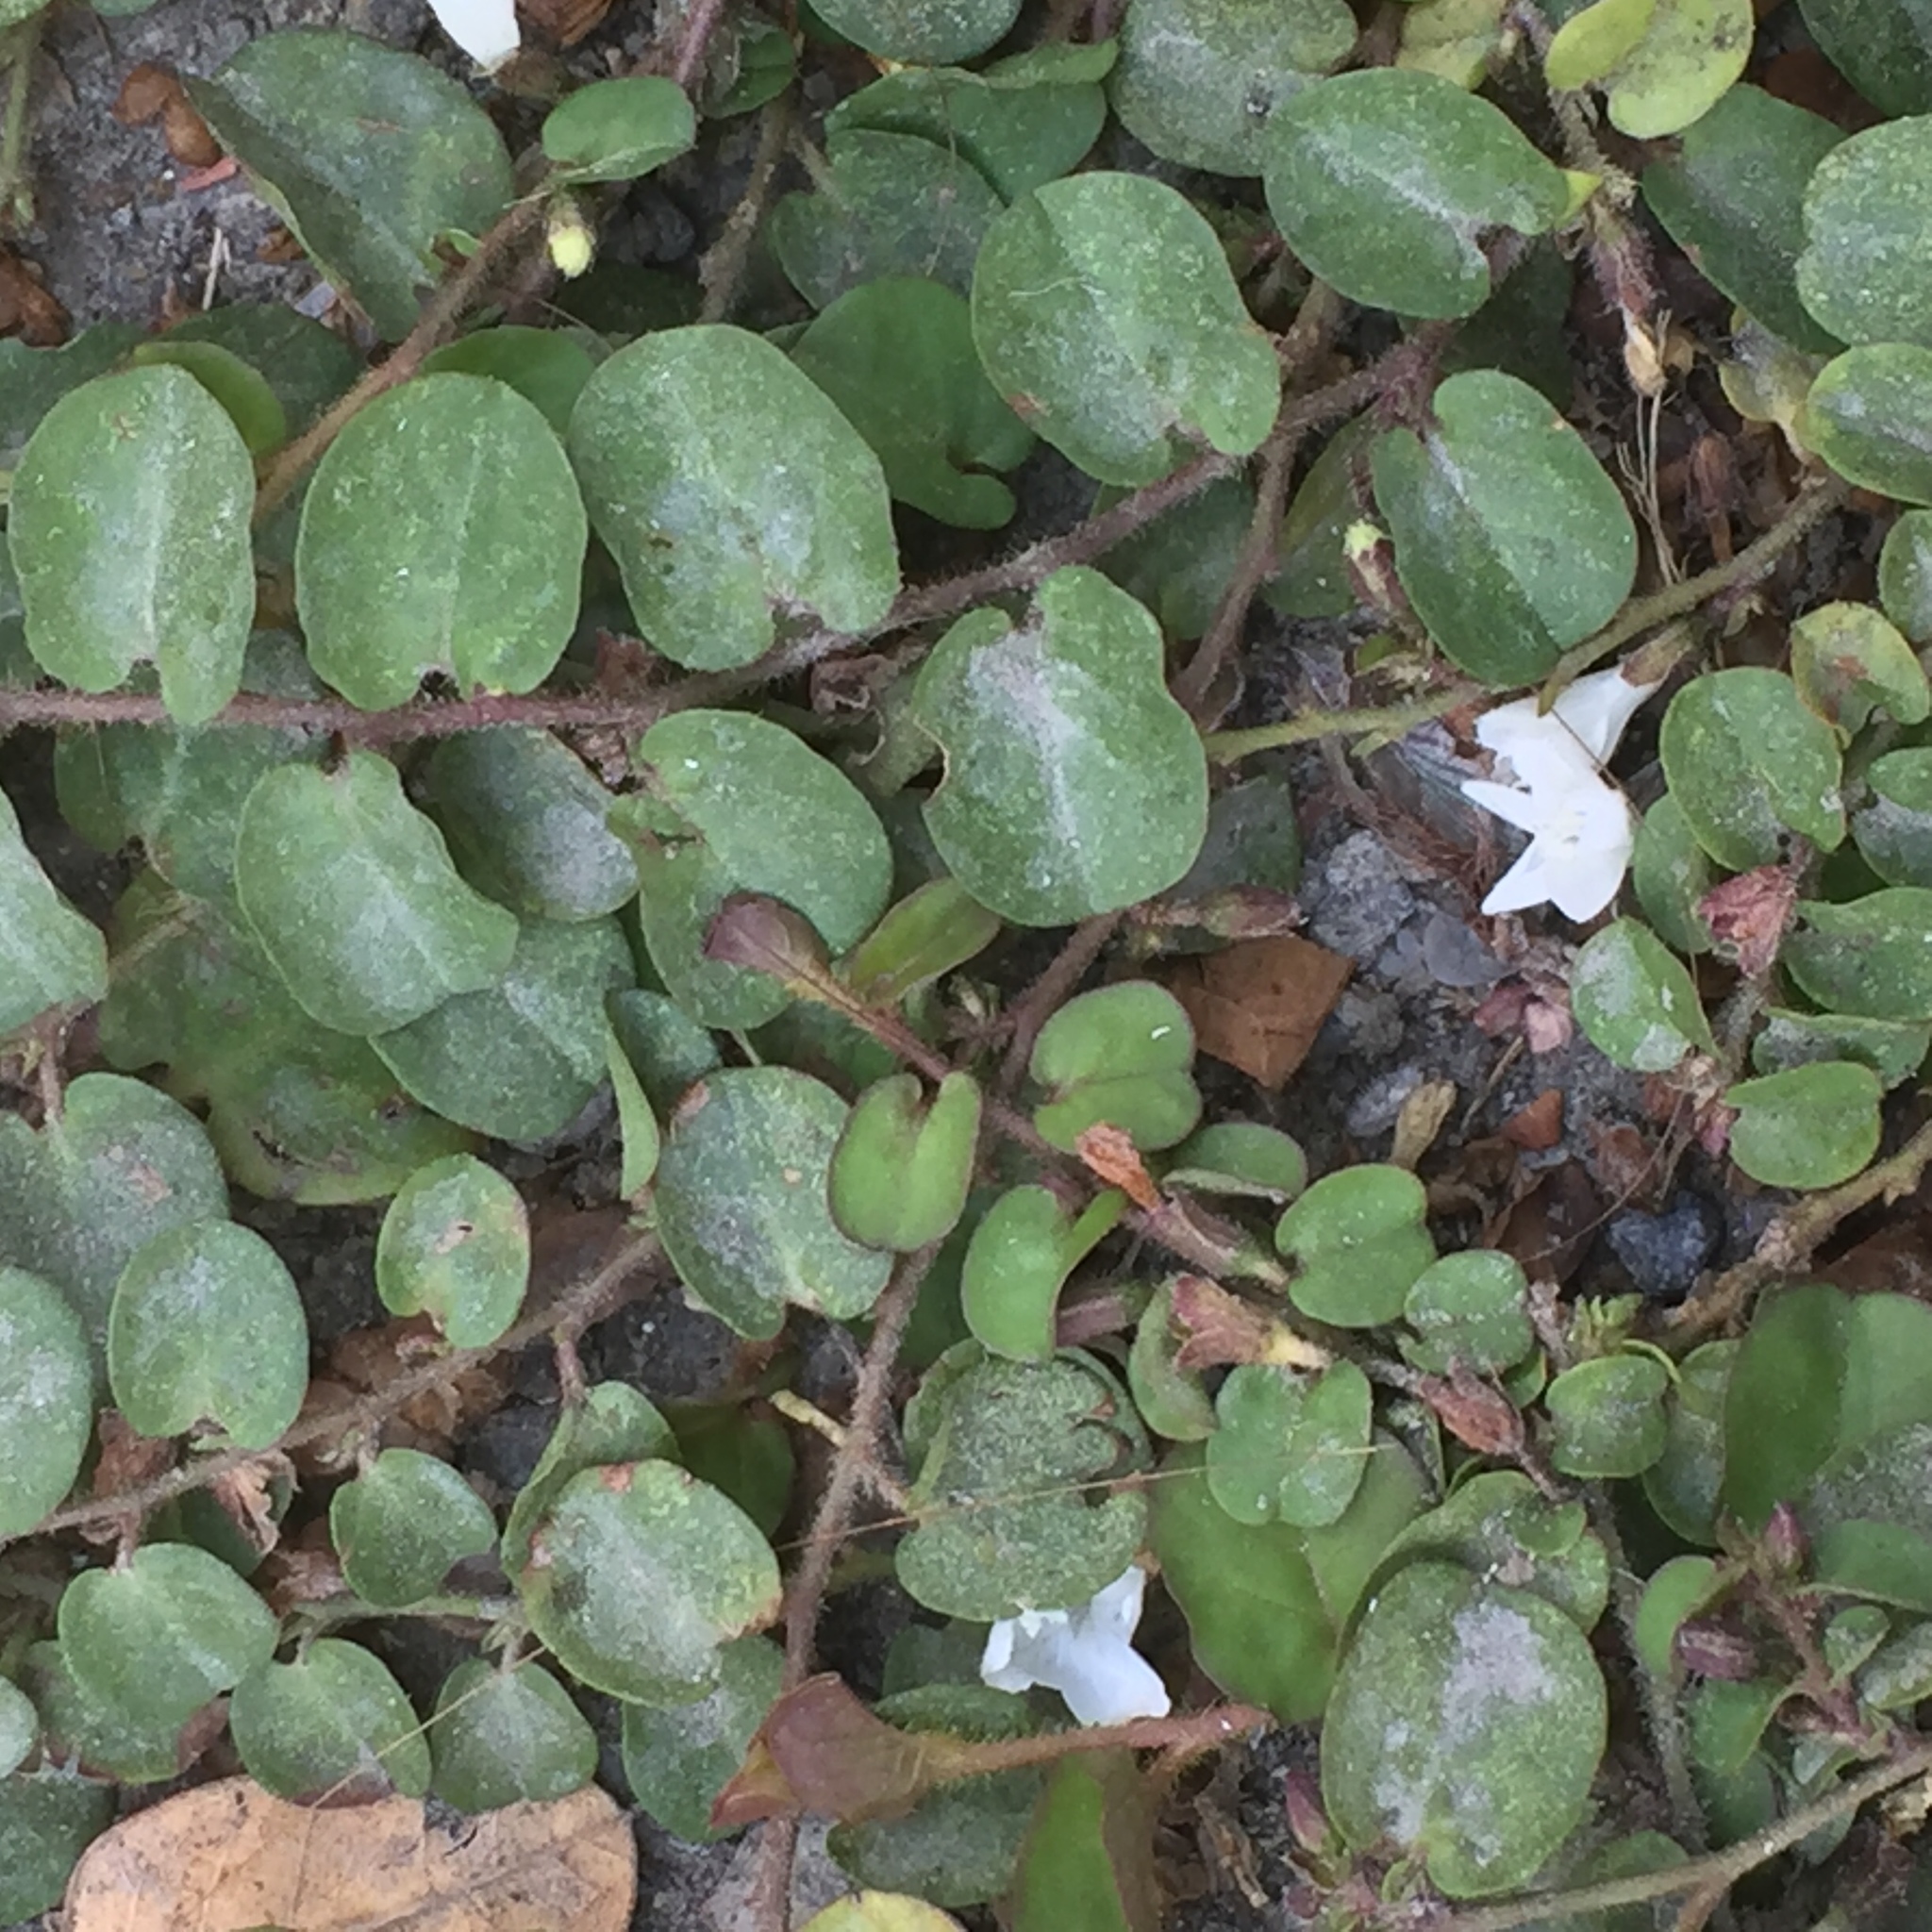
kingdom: Plantae
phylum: Tracheophyta
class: Magnoliopsida
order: Solanales
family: Convolvulaceae
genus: Evolvulus
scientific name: Evolvulus nummularius
